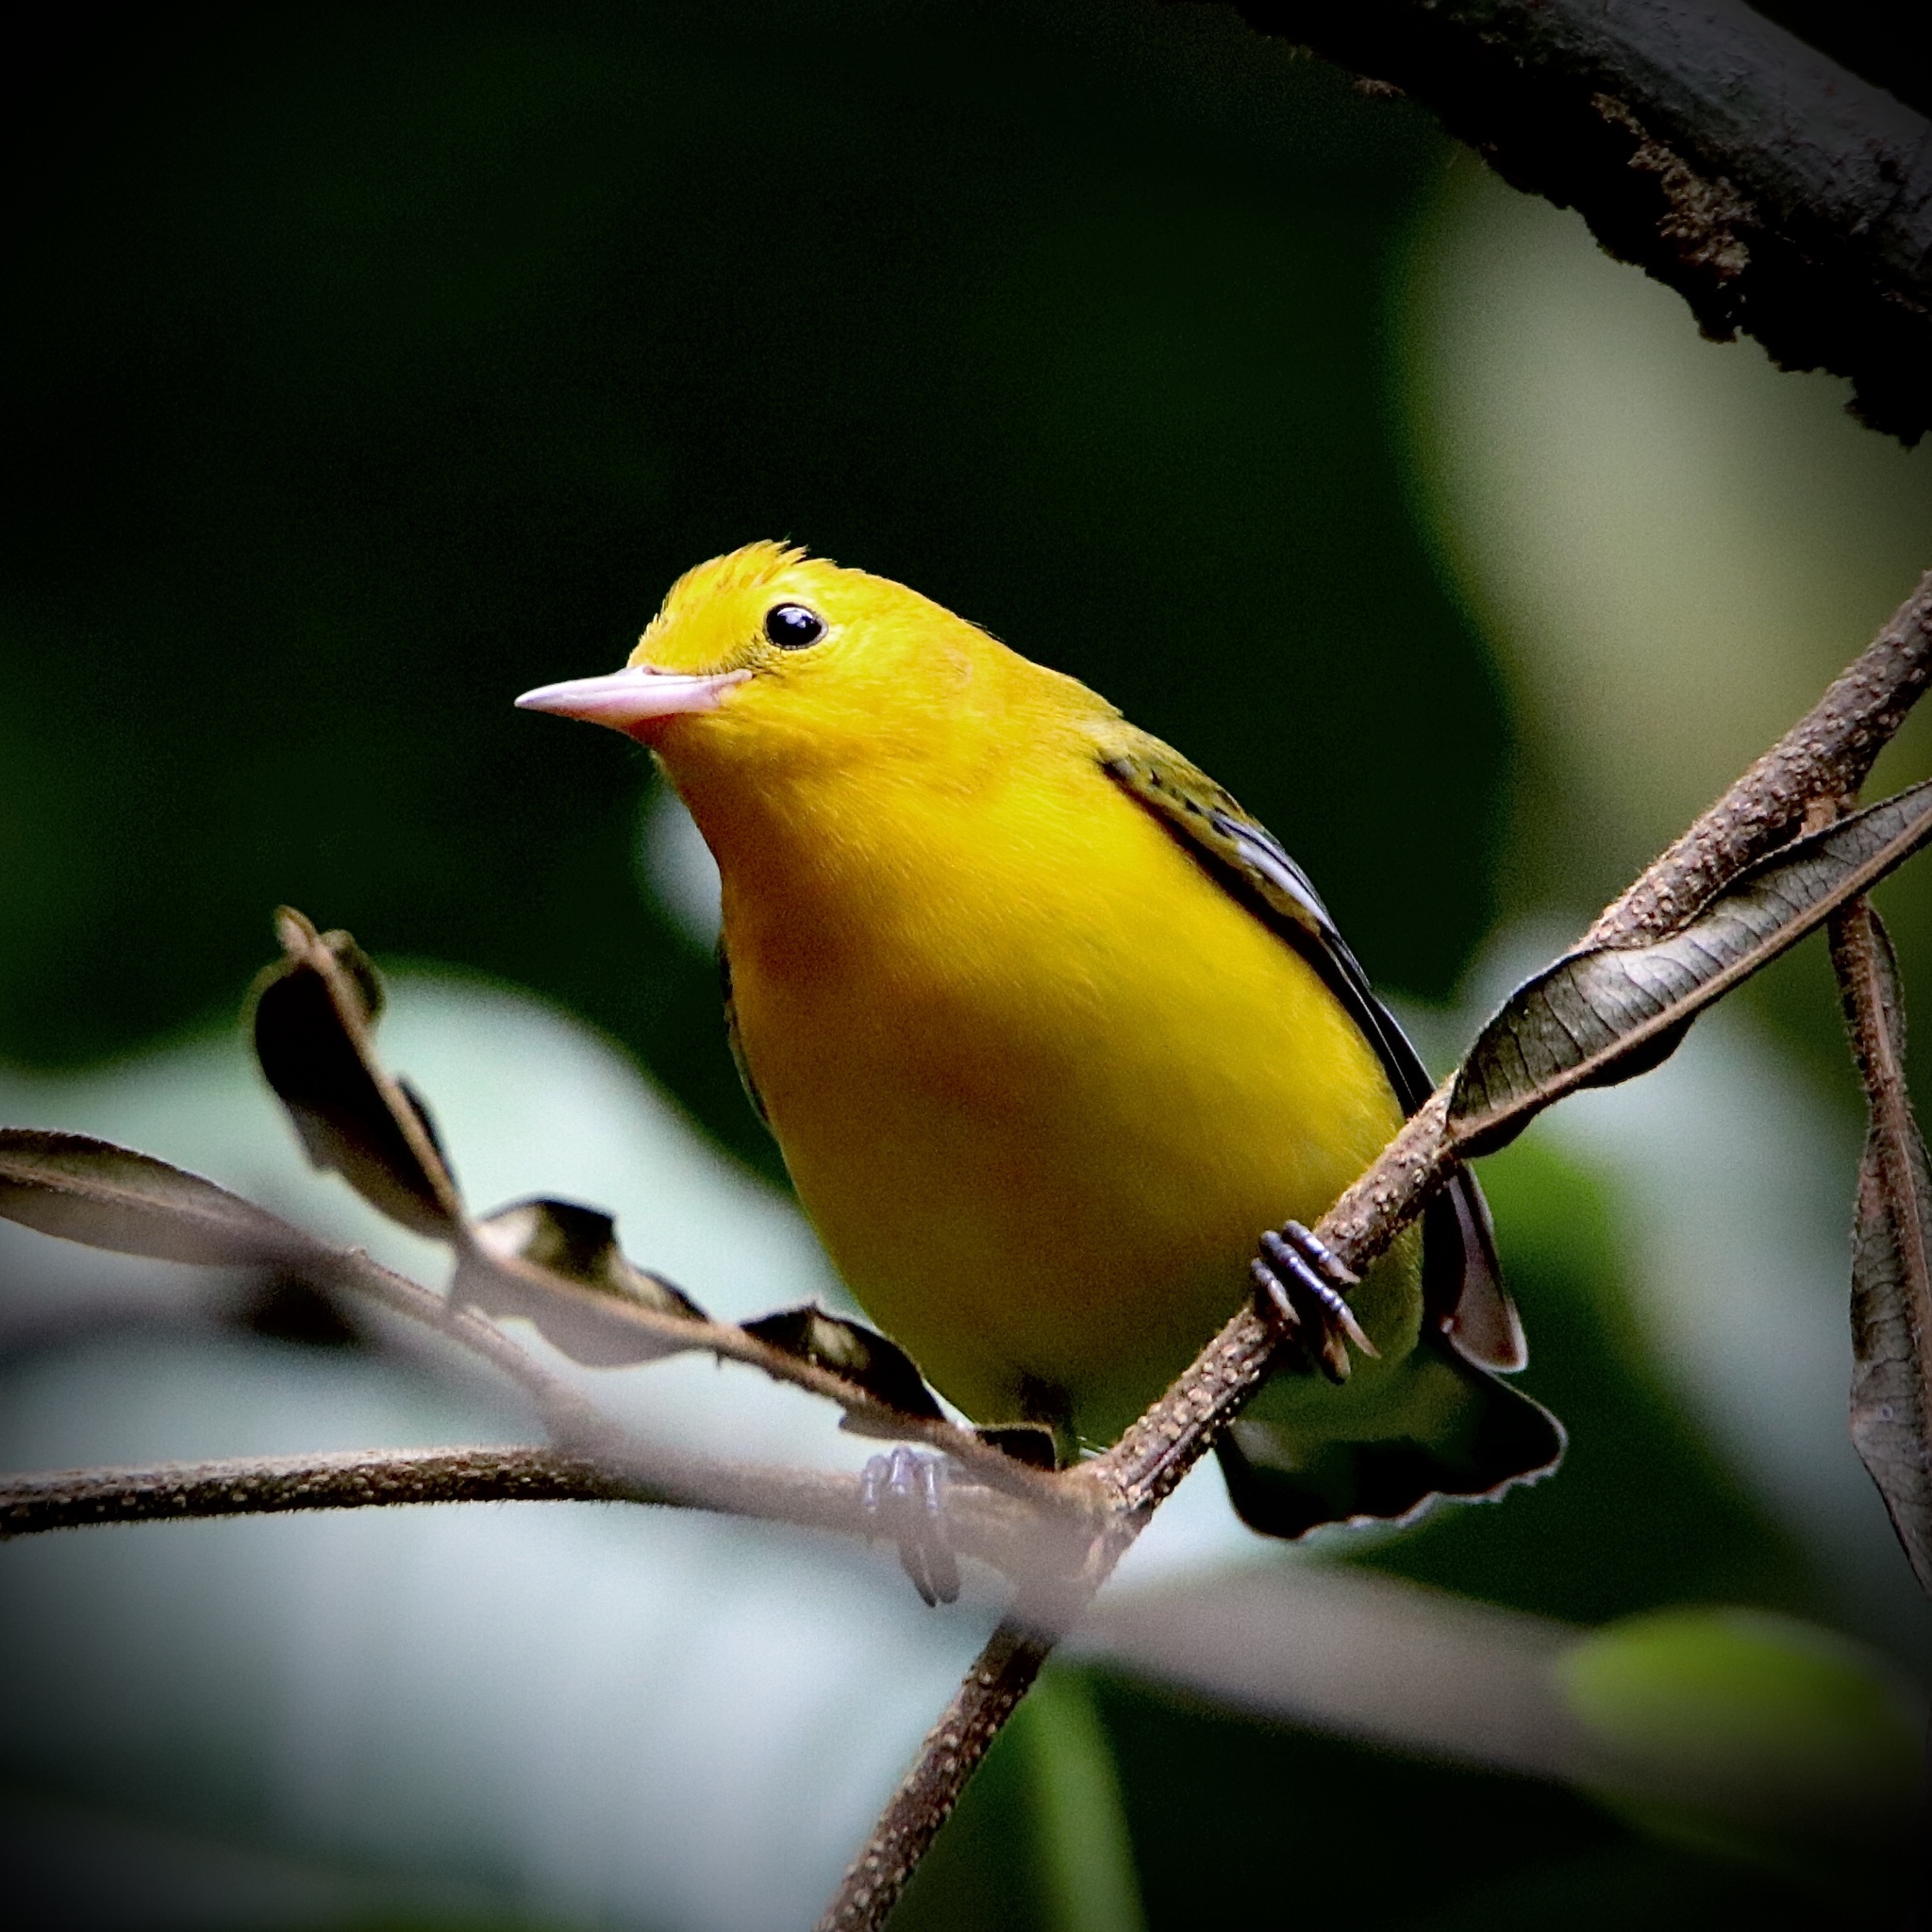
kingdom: Animalia
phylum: Chordata
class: Aves
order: Passeriformes
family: Parulidae
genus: Protonotaria
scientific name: Protonotaria citrea
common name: Prothonotary warbler
